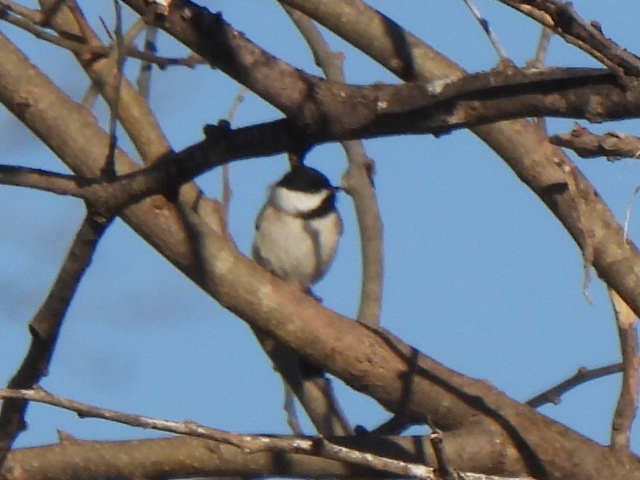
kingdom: Animalia
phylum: Chordata
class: Aves
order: Passeriformes
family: Paridae
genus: Poecile
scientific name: Poecile carolinensis
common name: Carolina chickadee
